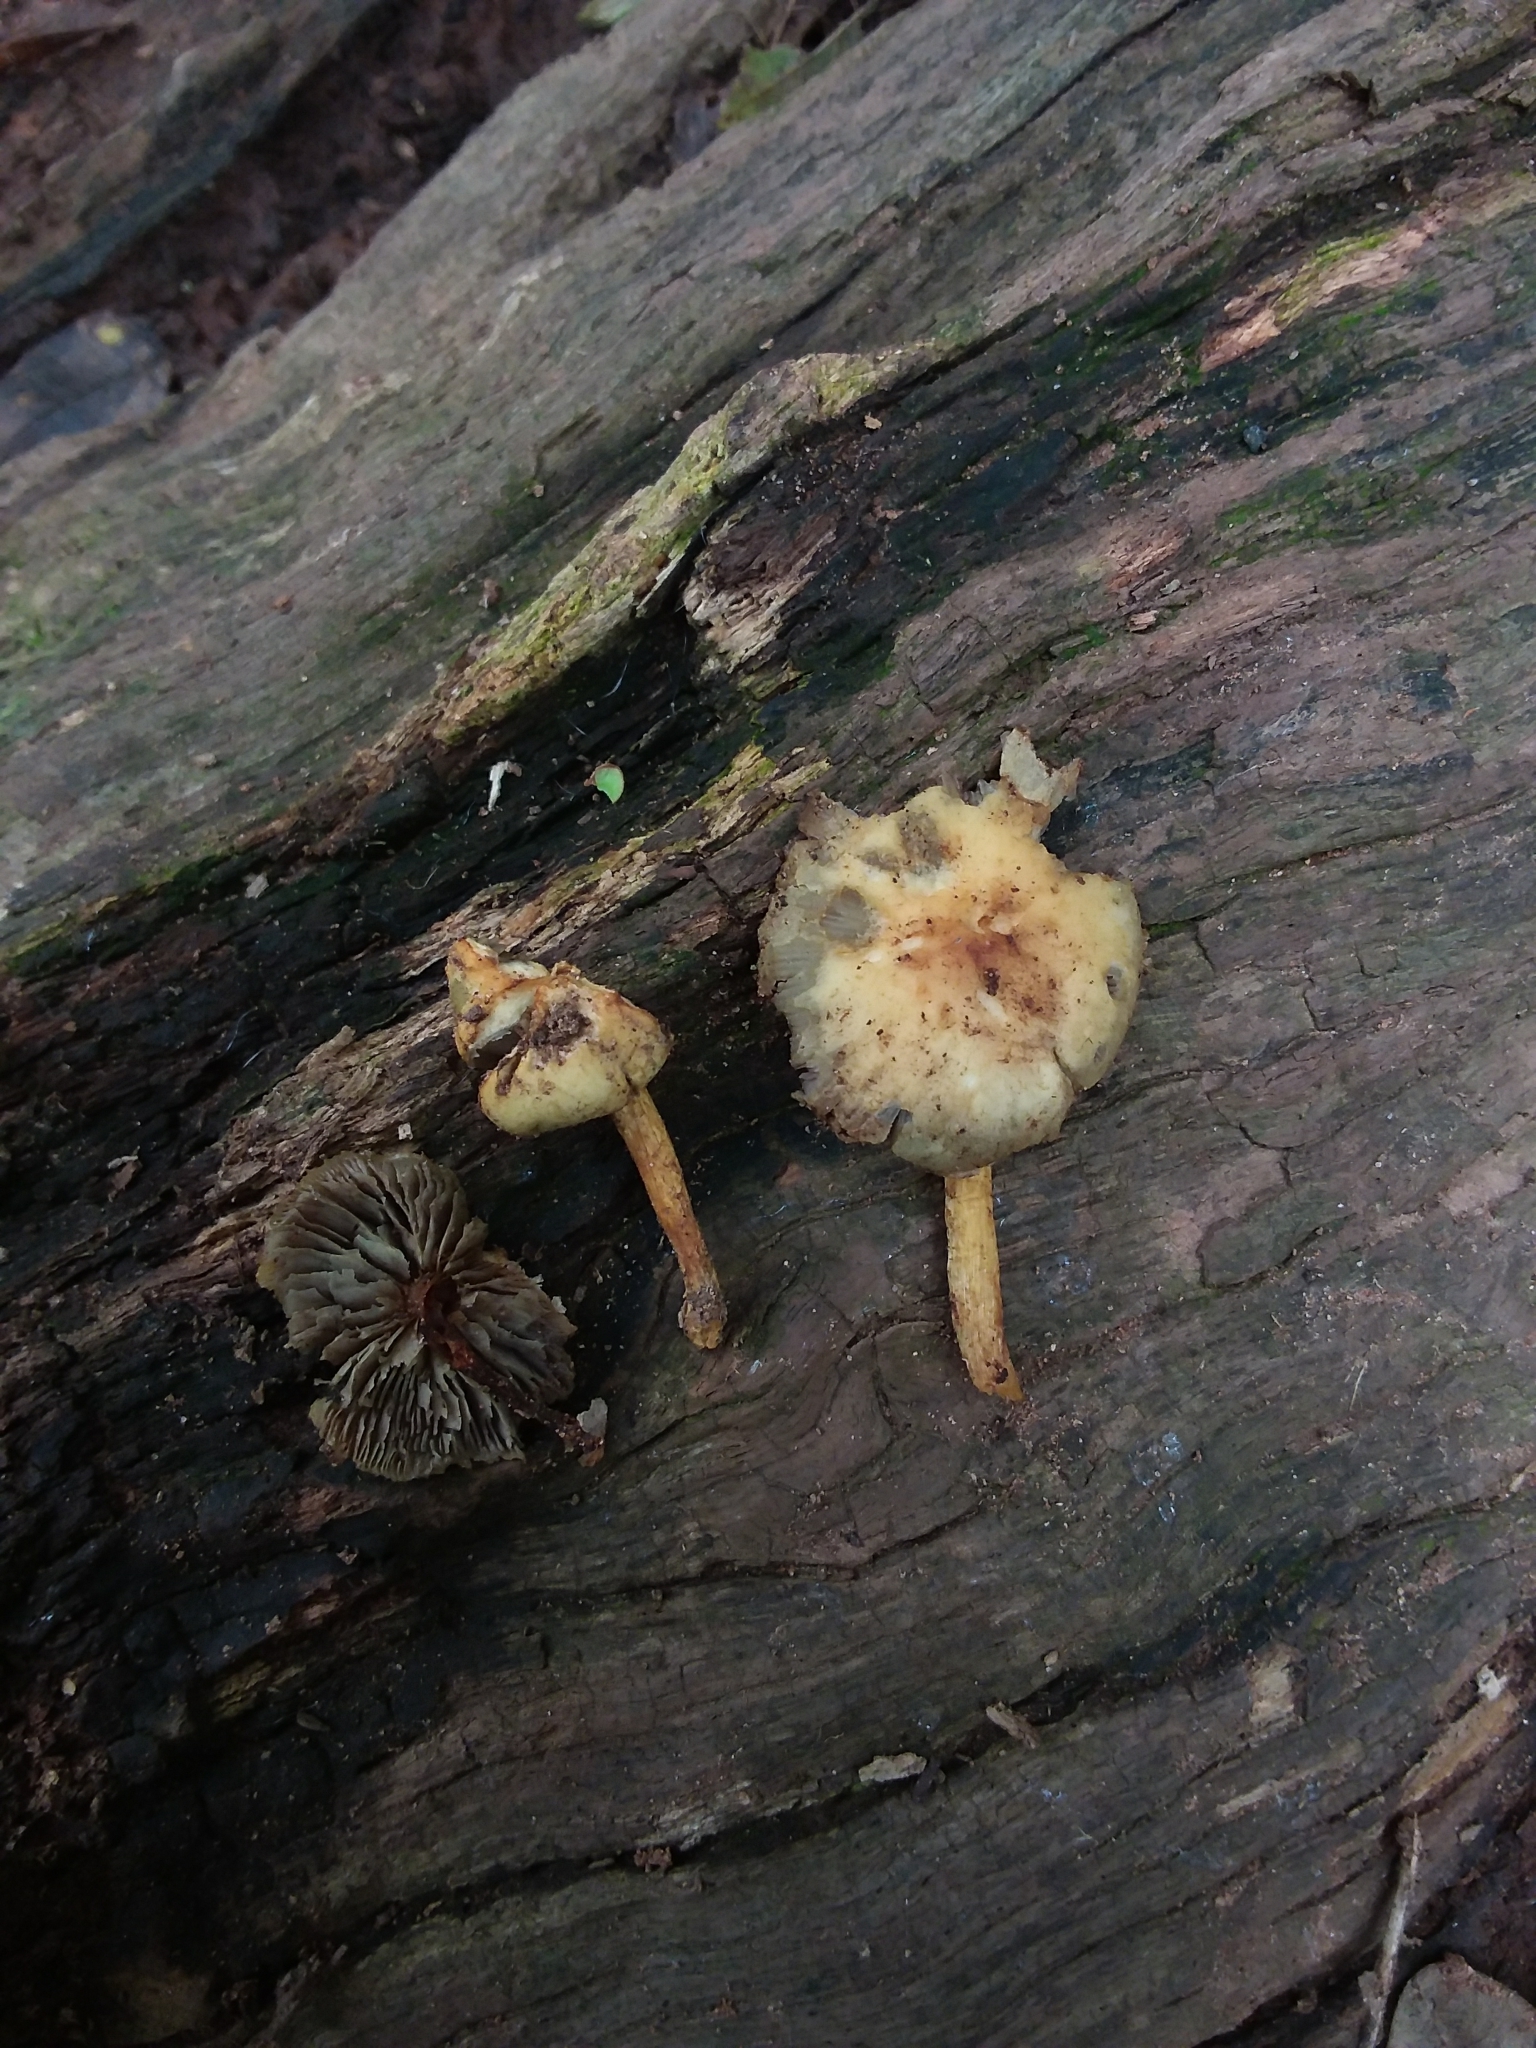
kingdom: Fungi
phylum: Basidiomycota
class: Agaricomycetes
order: Agaricales
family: Strophariaceae
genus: Hypholoma
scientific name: Hypholoma fasciculare
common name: Sulphur tuft
